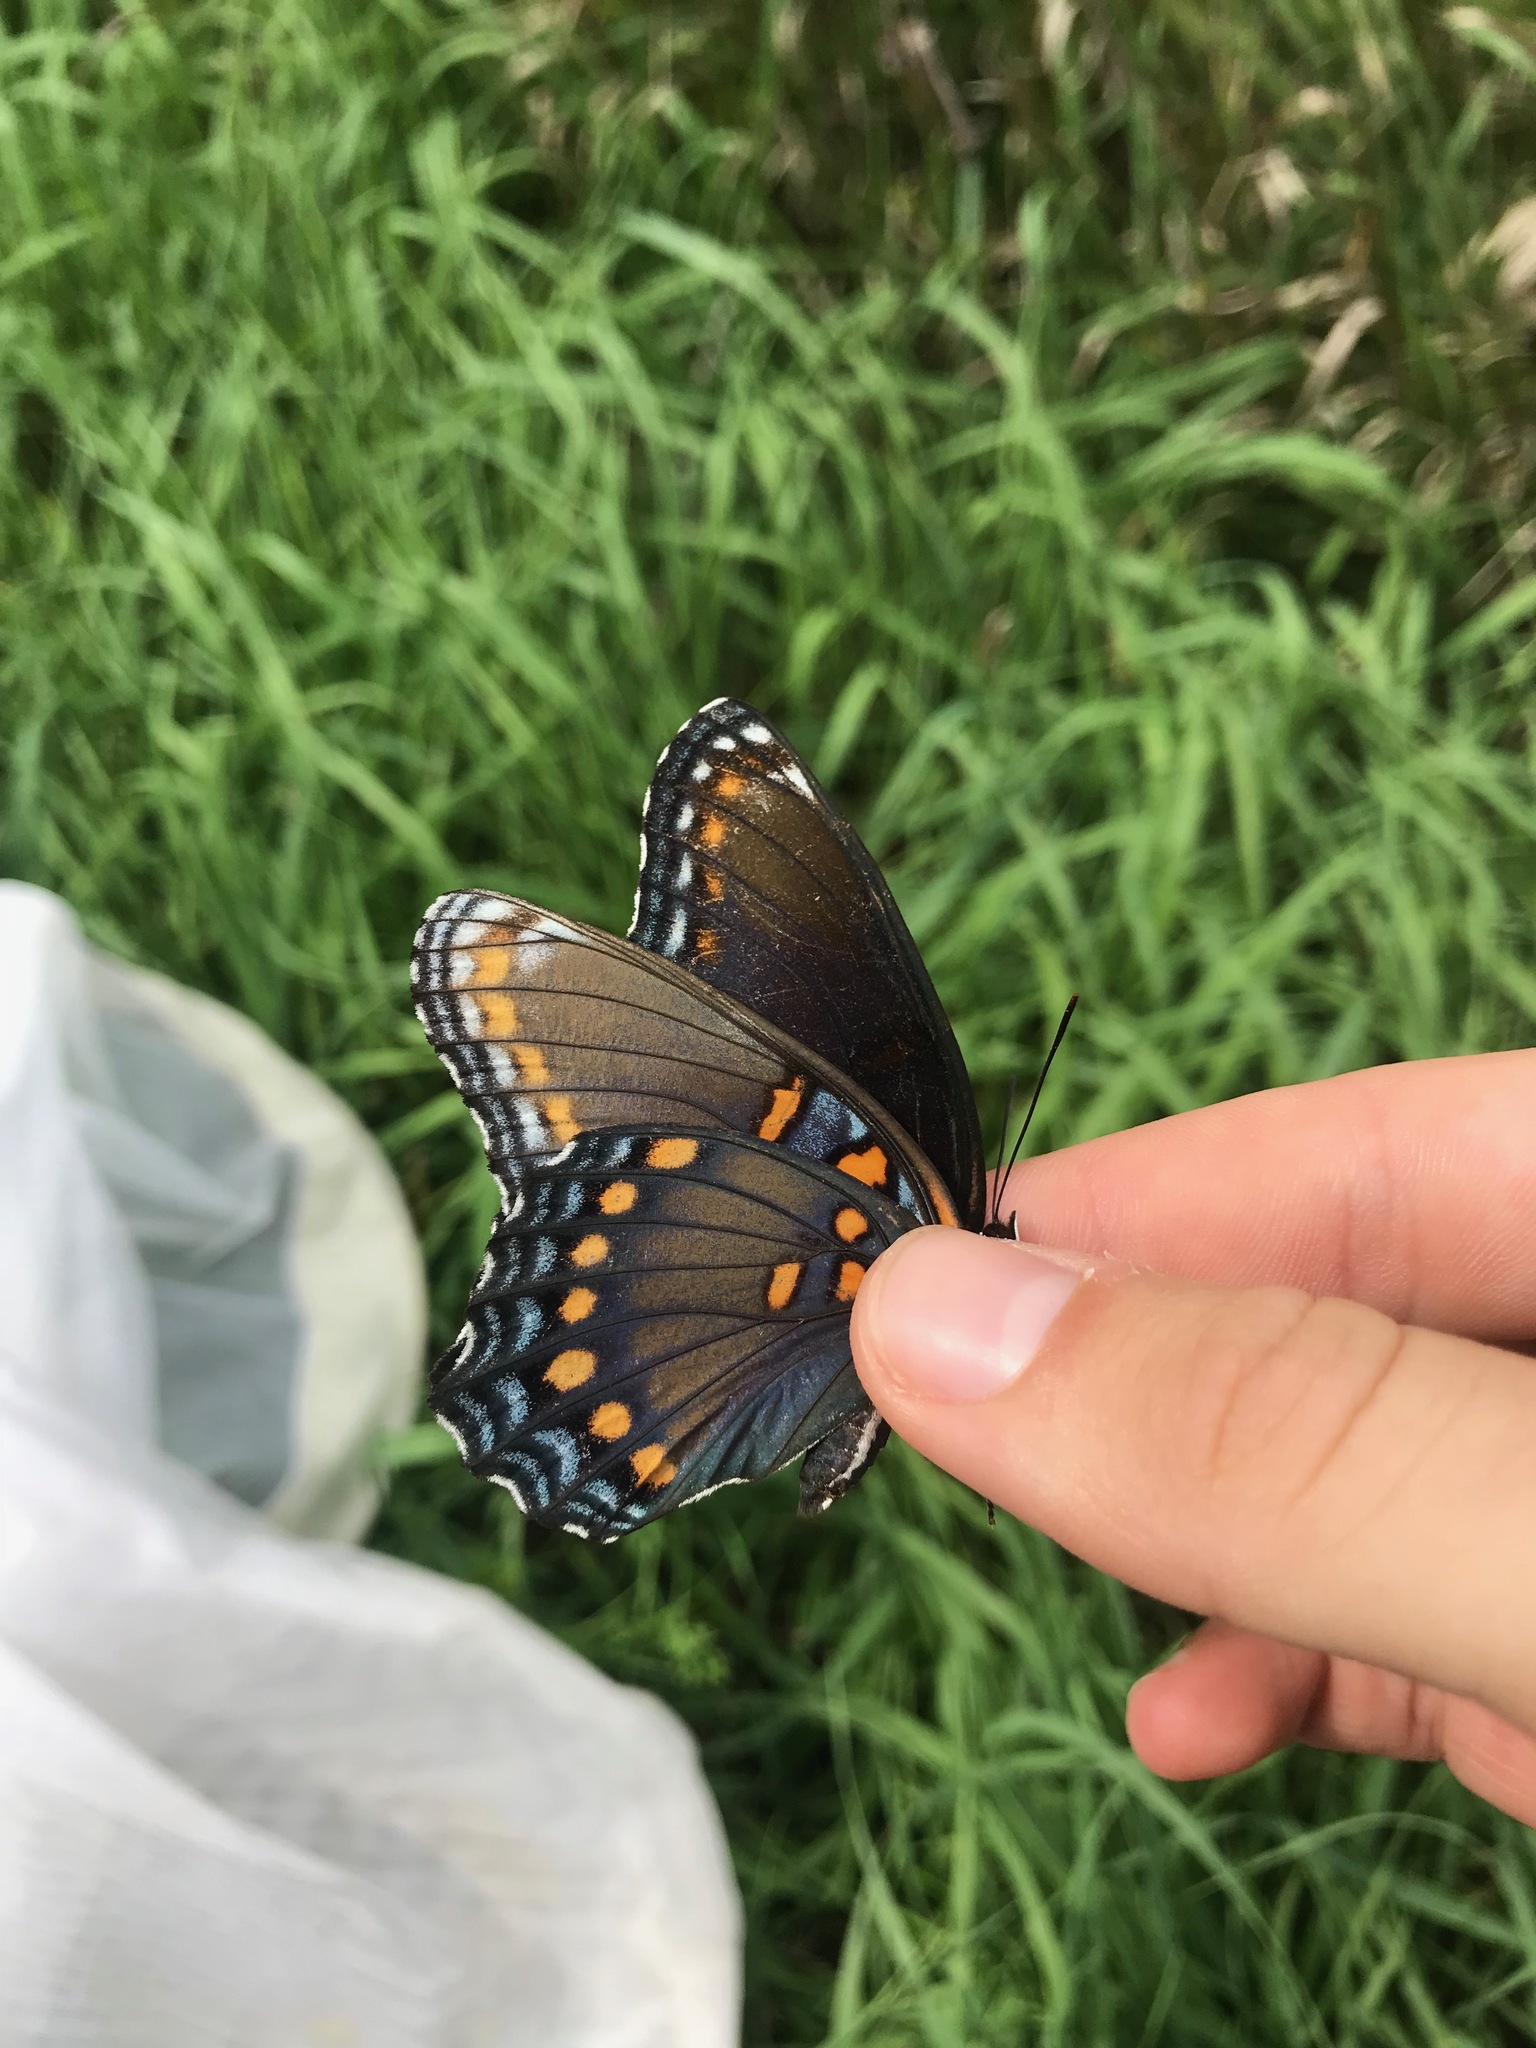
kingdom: Animalia
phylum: Arthropoda
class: Insecta
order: Lepidoptera
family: Nymphalidae
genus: Limenitis
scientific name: Limenitis arthemis
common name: Red-spotted admiral
